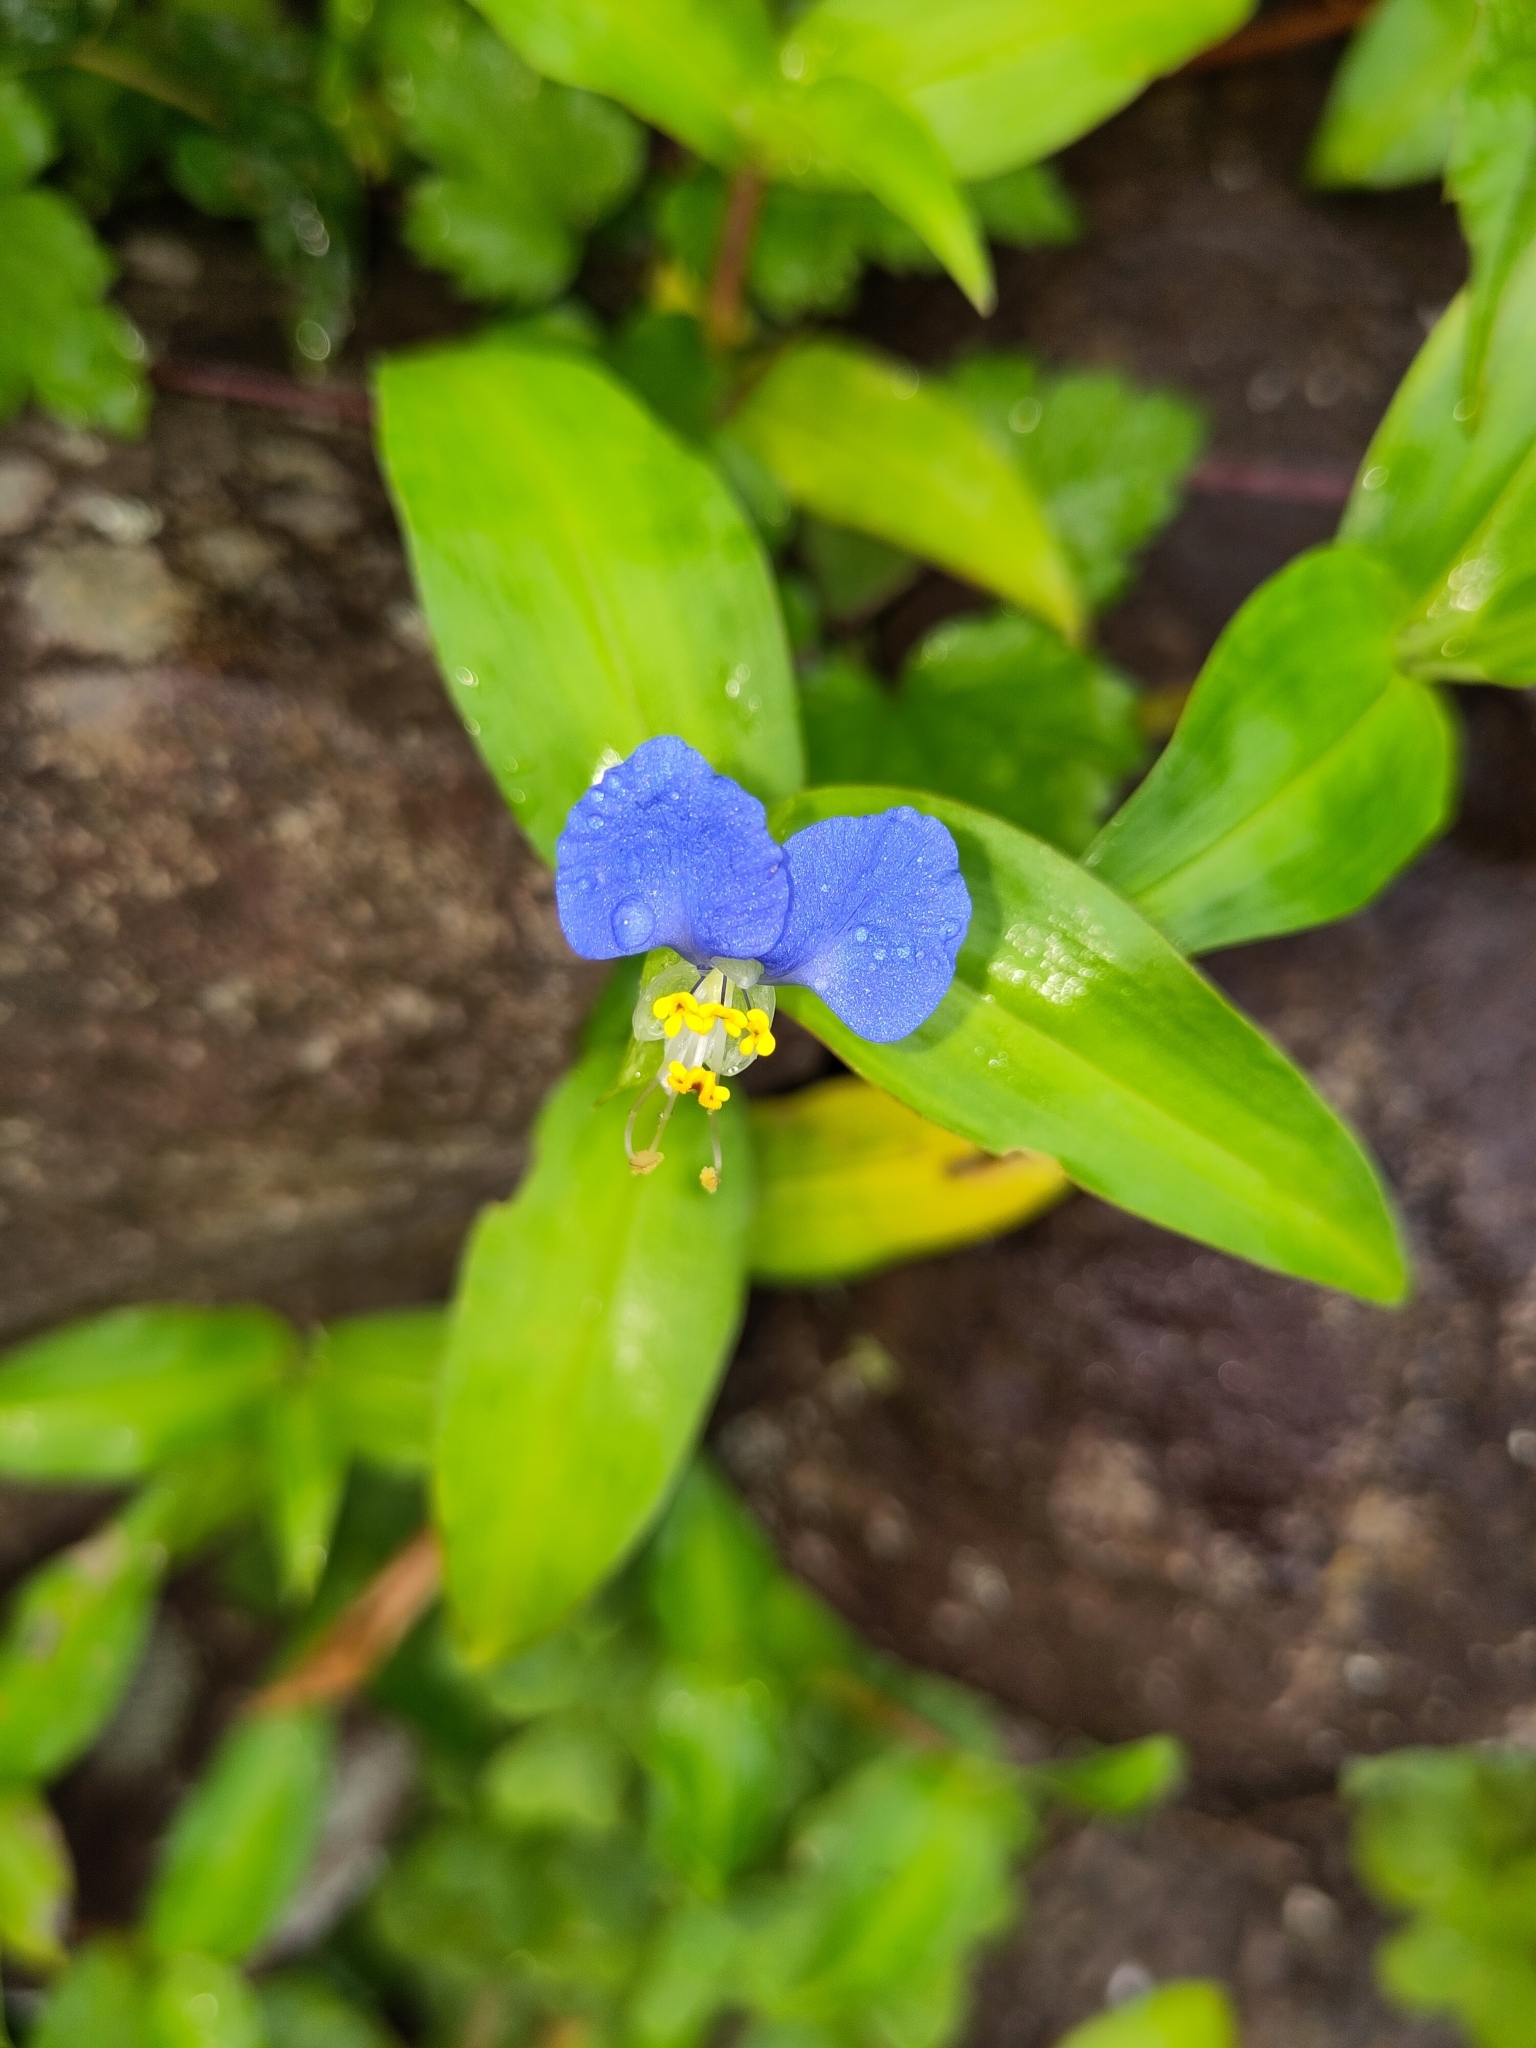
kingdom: Plantae
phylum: Tracheophyta
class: Liliopsida
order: Commelinales
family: Commelinaceae
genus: Commelina
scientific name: Commelina communis
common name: Asiatic dayflower
